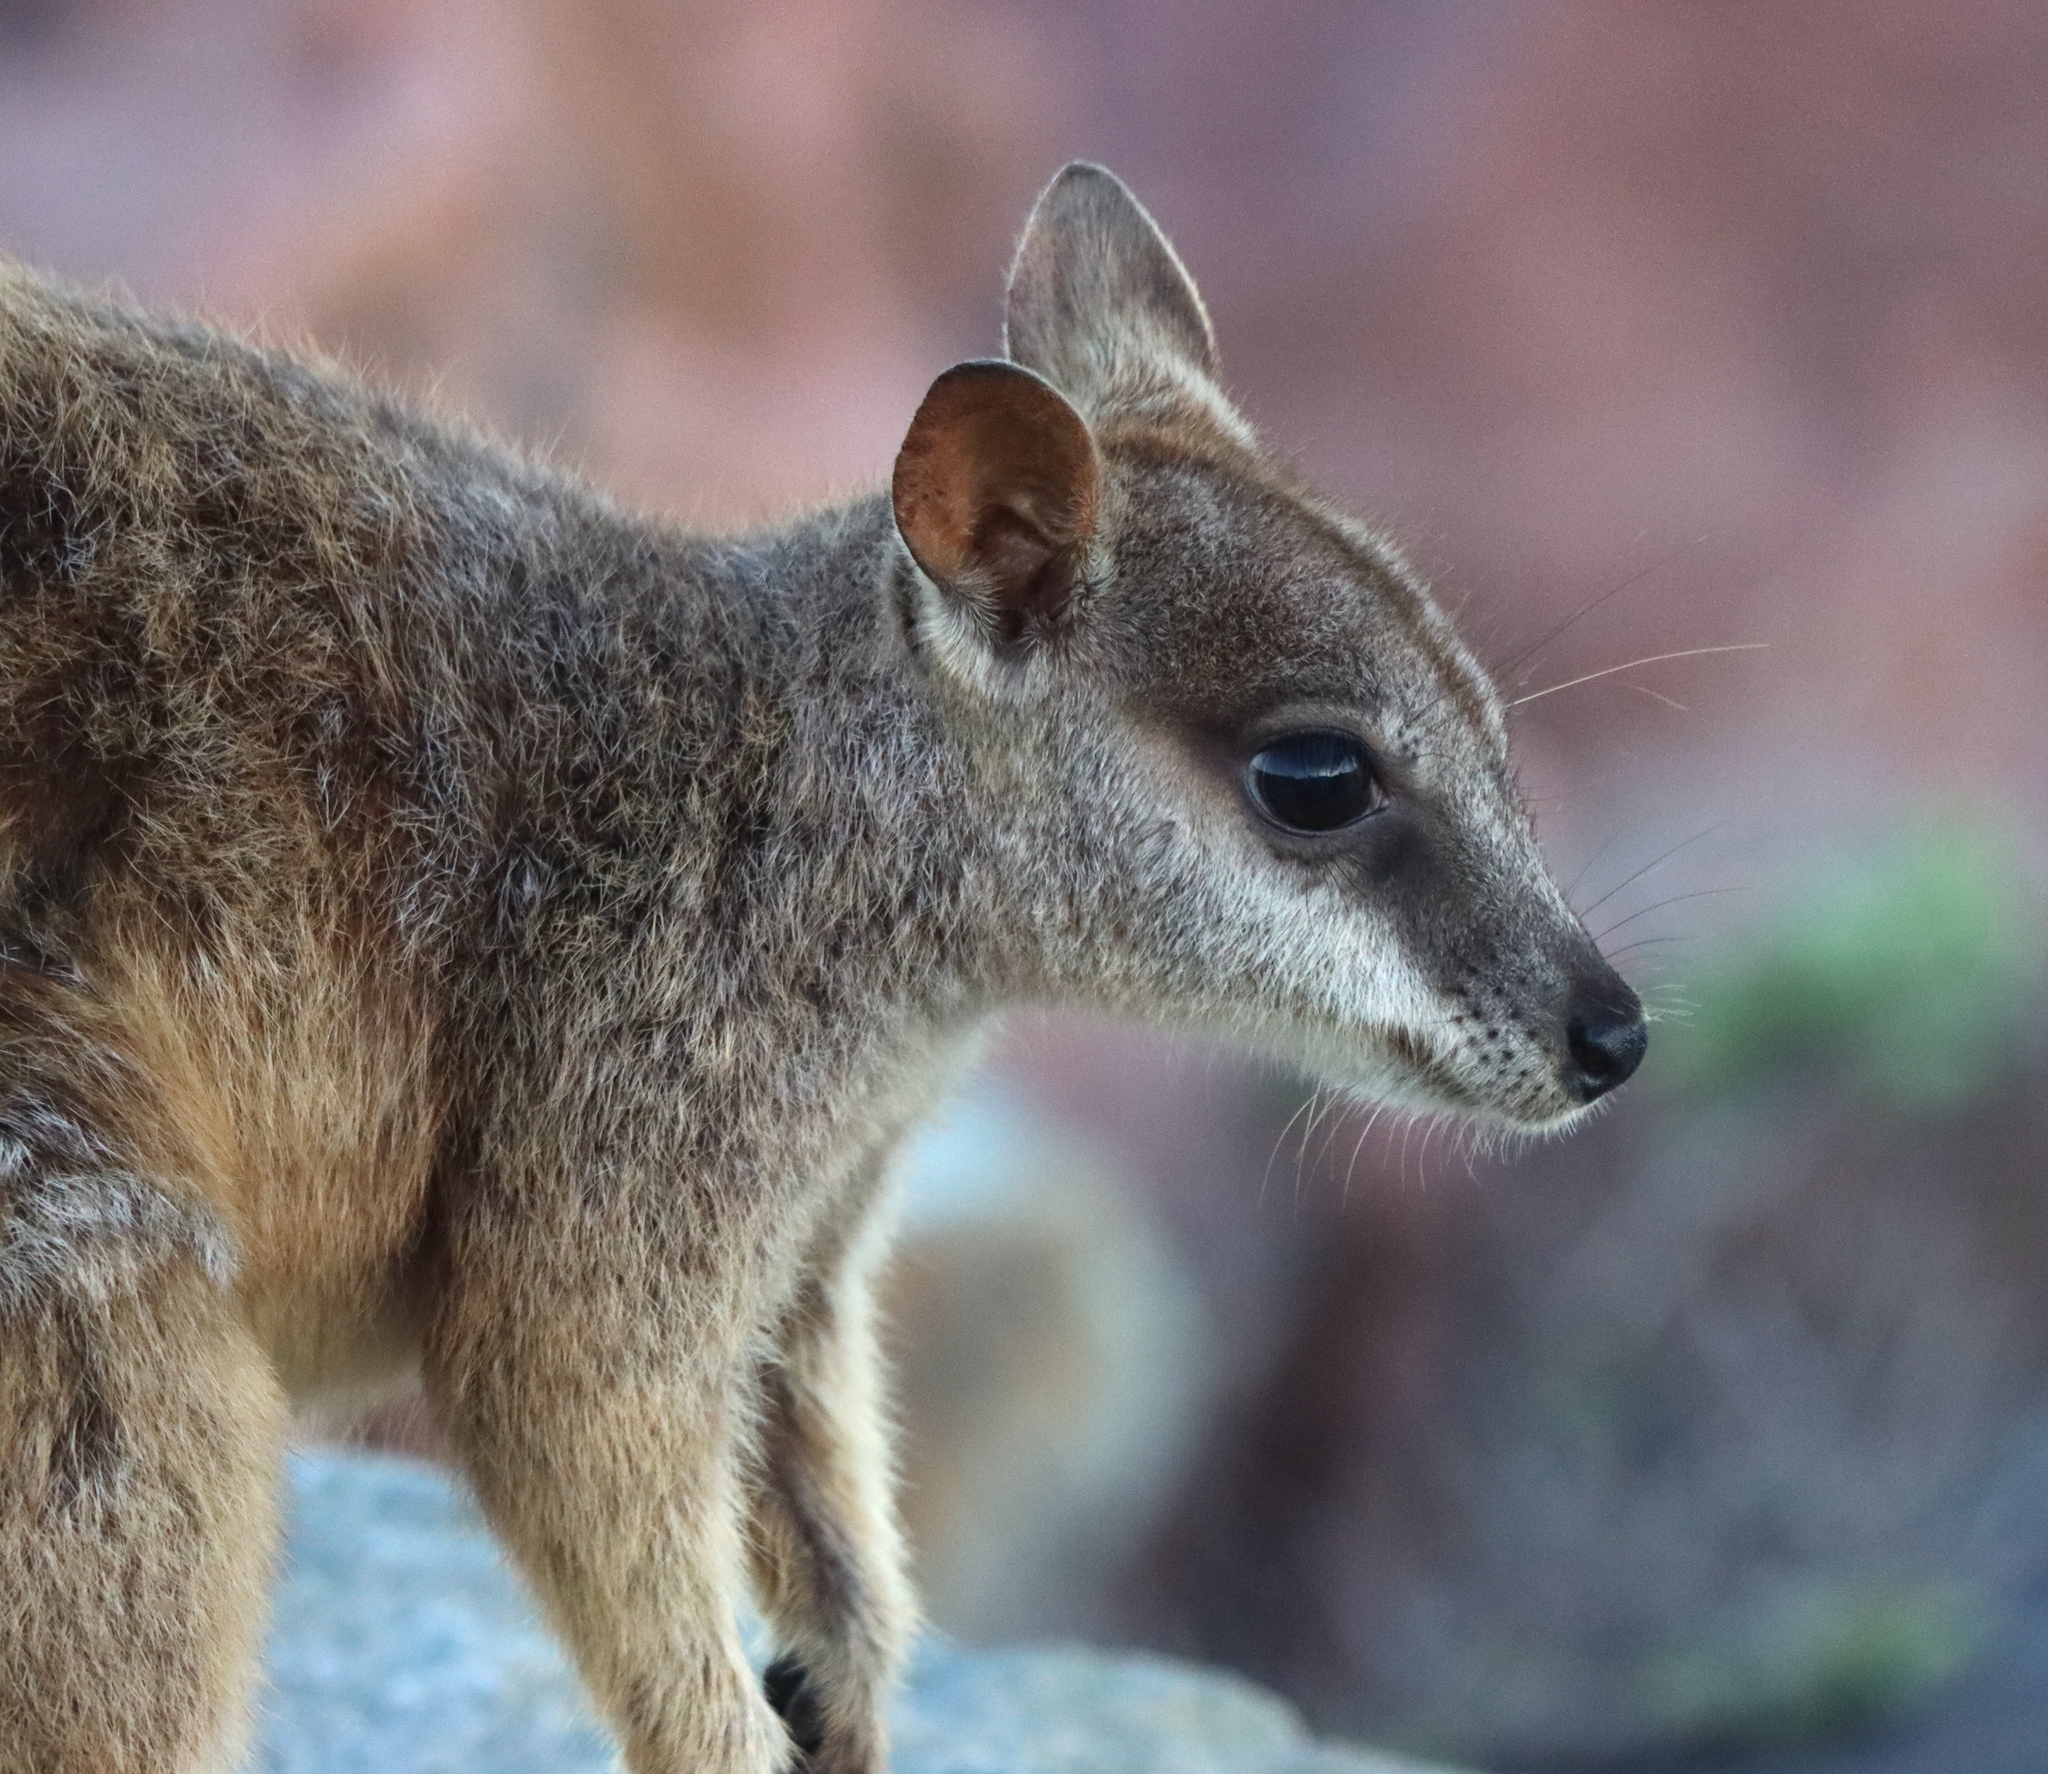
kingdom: Animalia
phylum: Chordata
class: Mammalia
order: Diprotodontia
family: Macropodidae
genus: Petrogale
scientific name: Petrogale assimilis
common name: Allied rock wallaby
